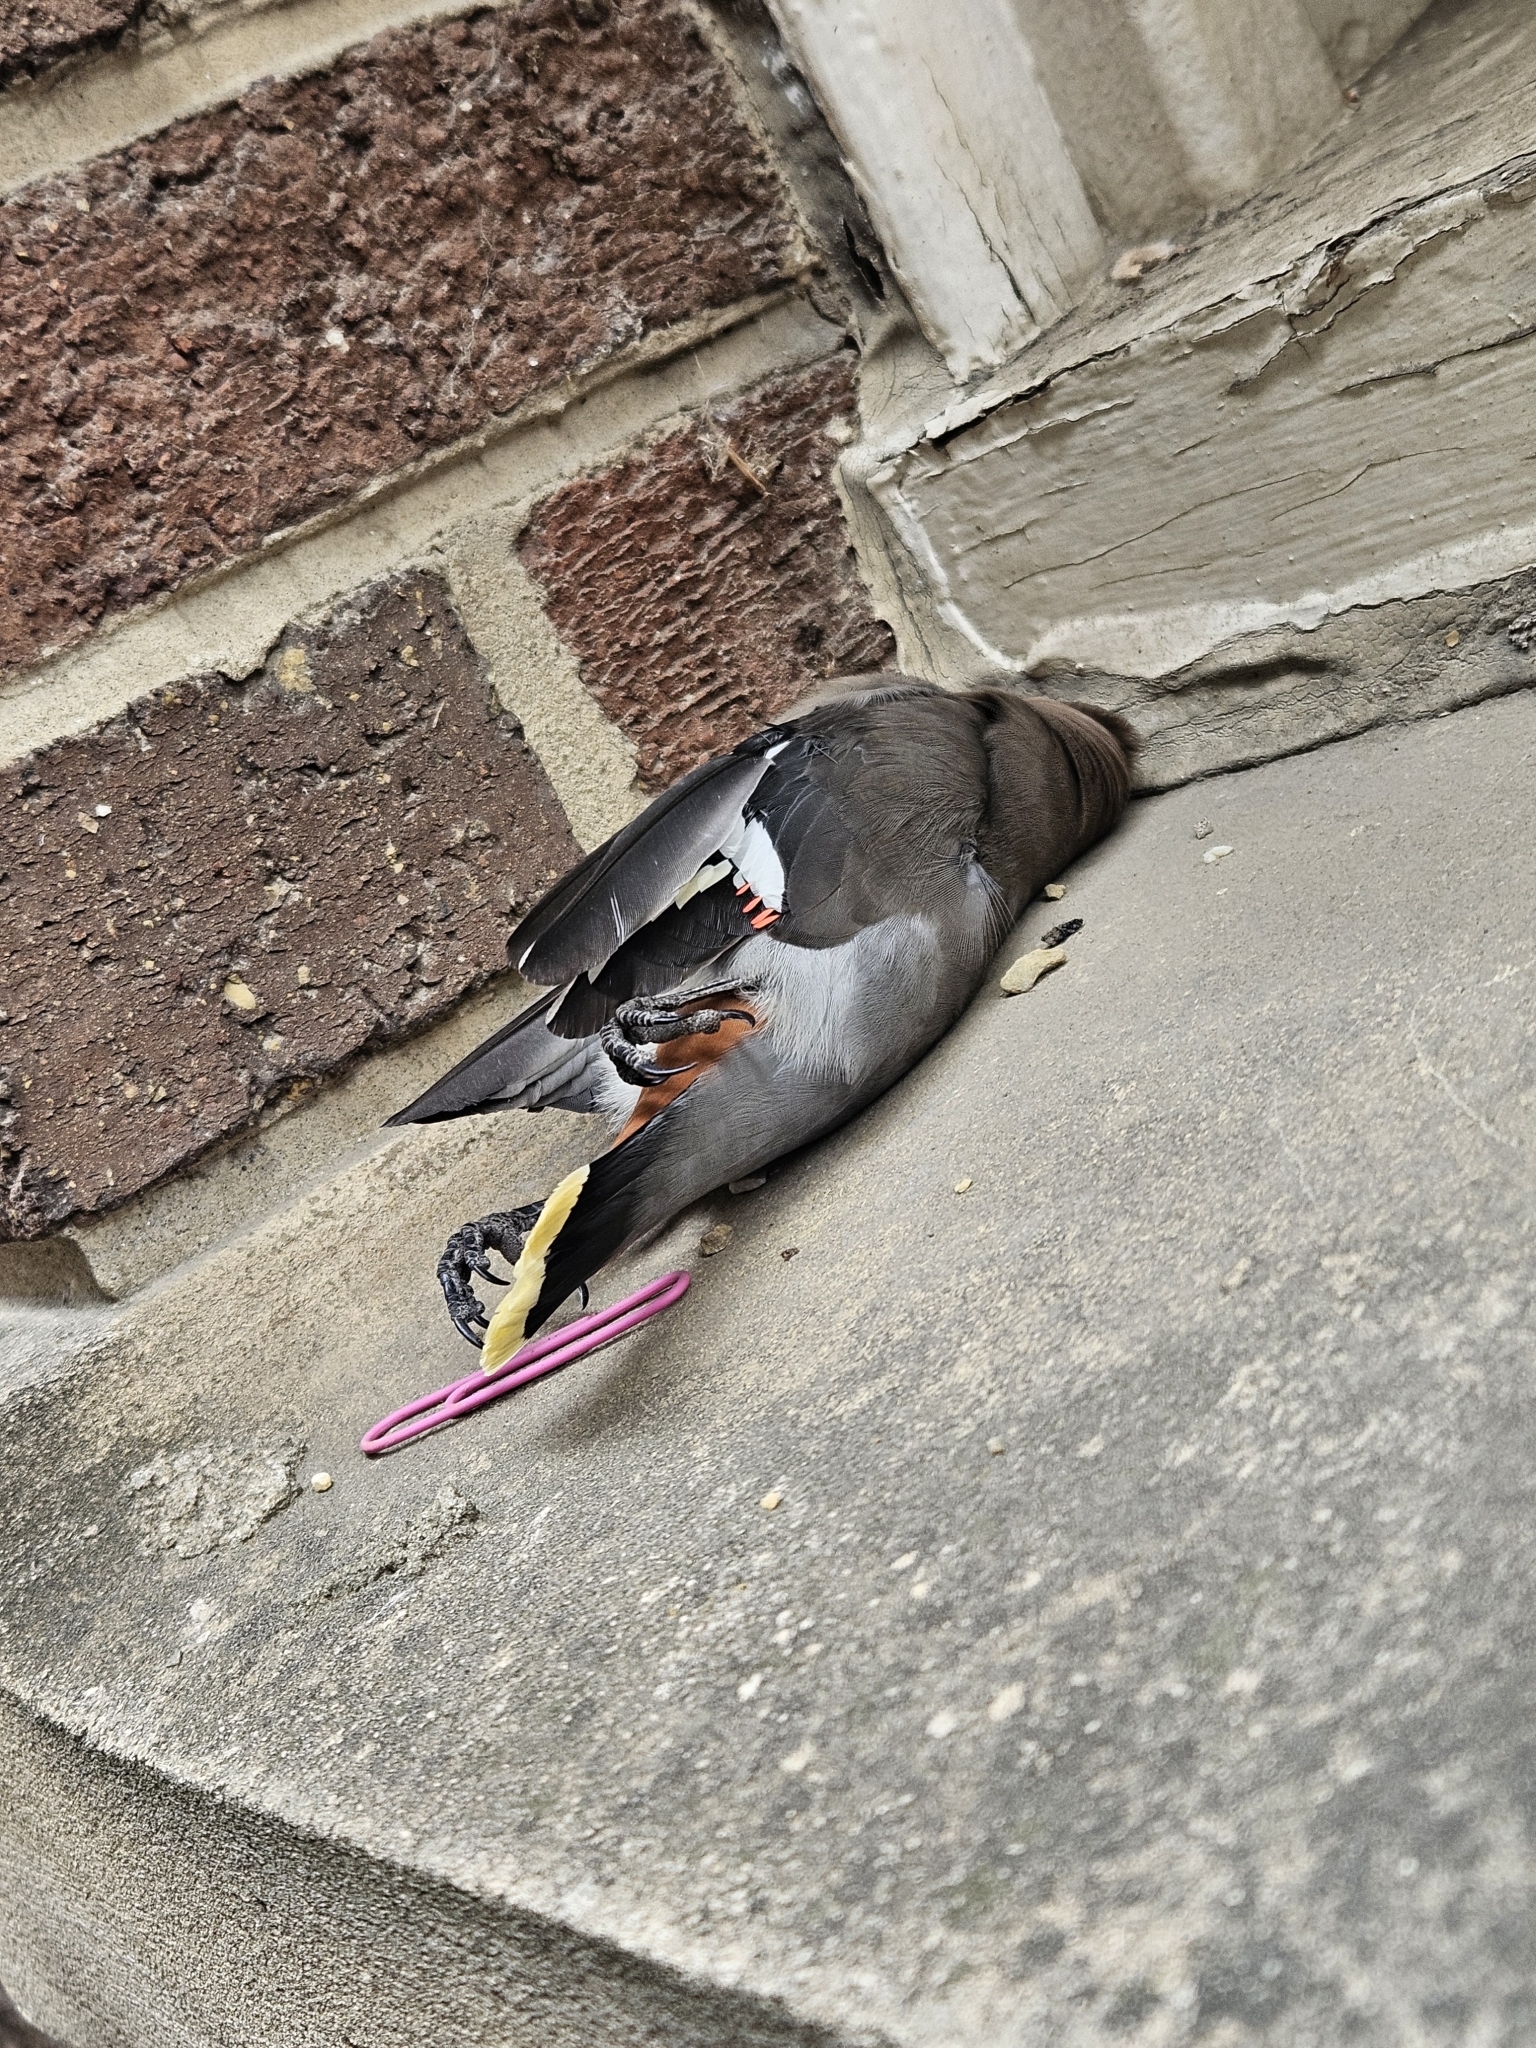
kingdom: Animalia
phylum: Chordata
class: Aves
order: Passeriformes
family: Bombycillidae
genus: Bombycilla
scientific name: Bombycilla garrulus
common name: Bohemian waxwing
